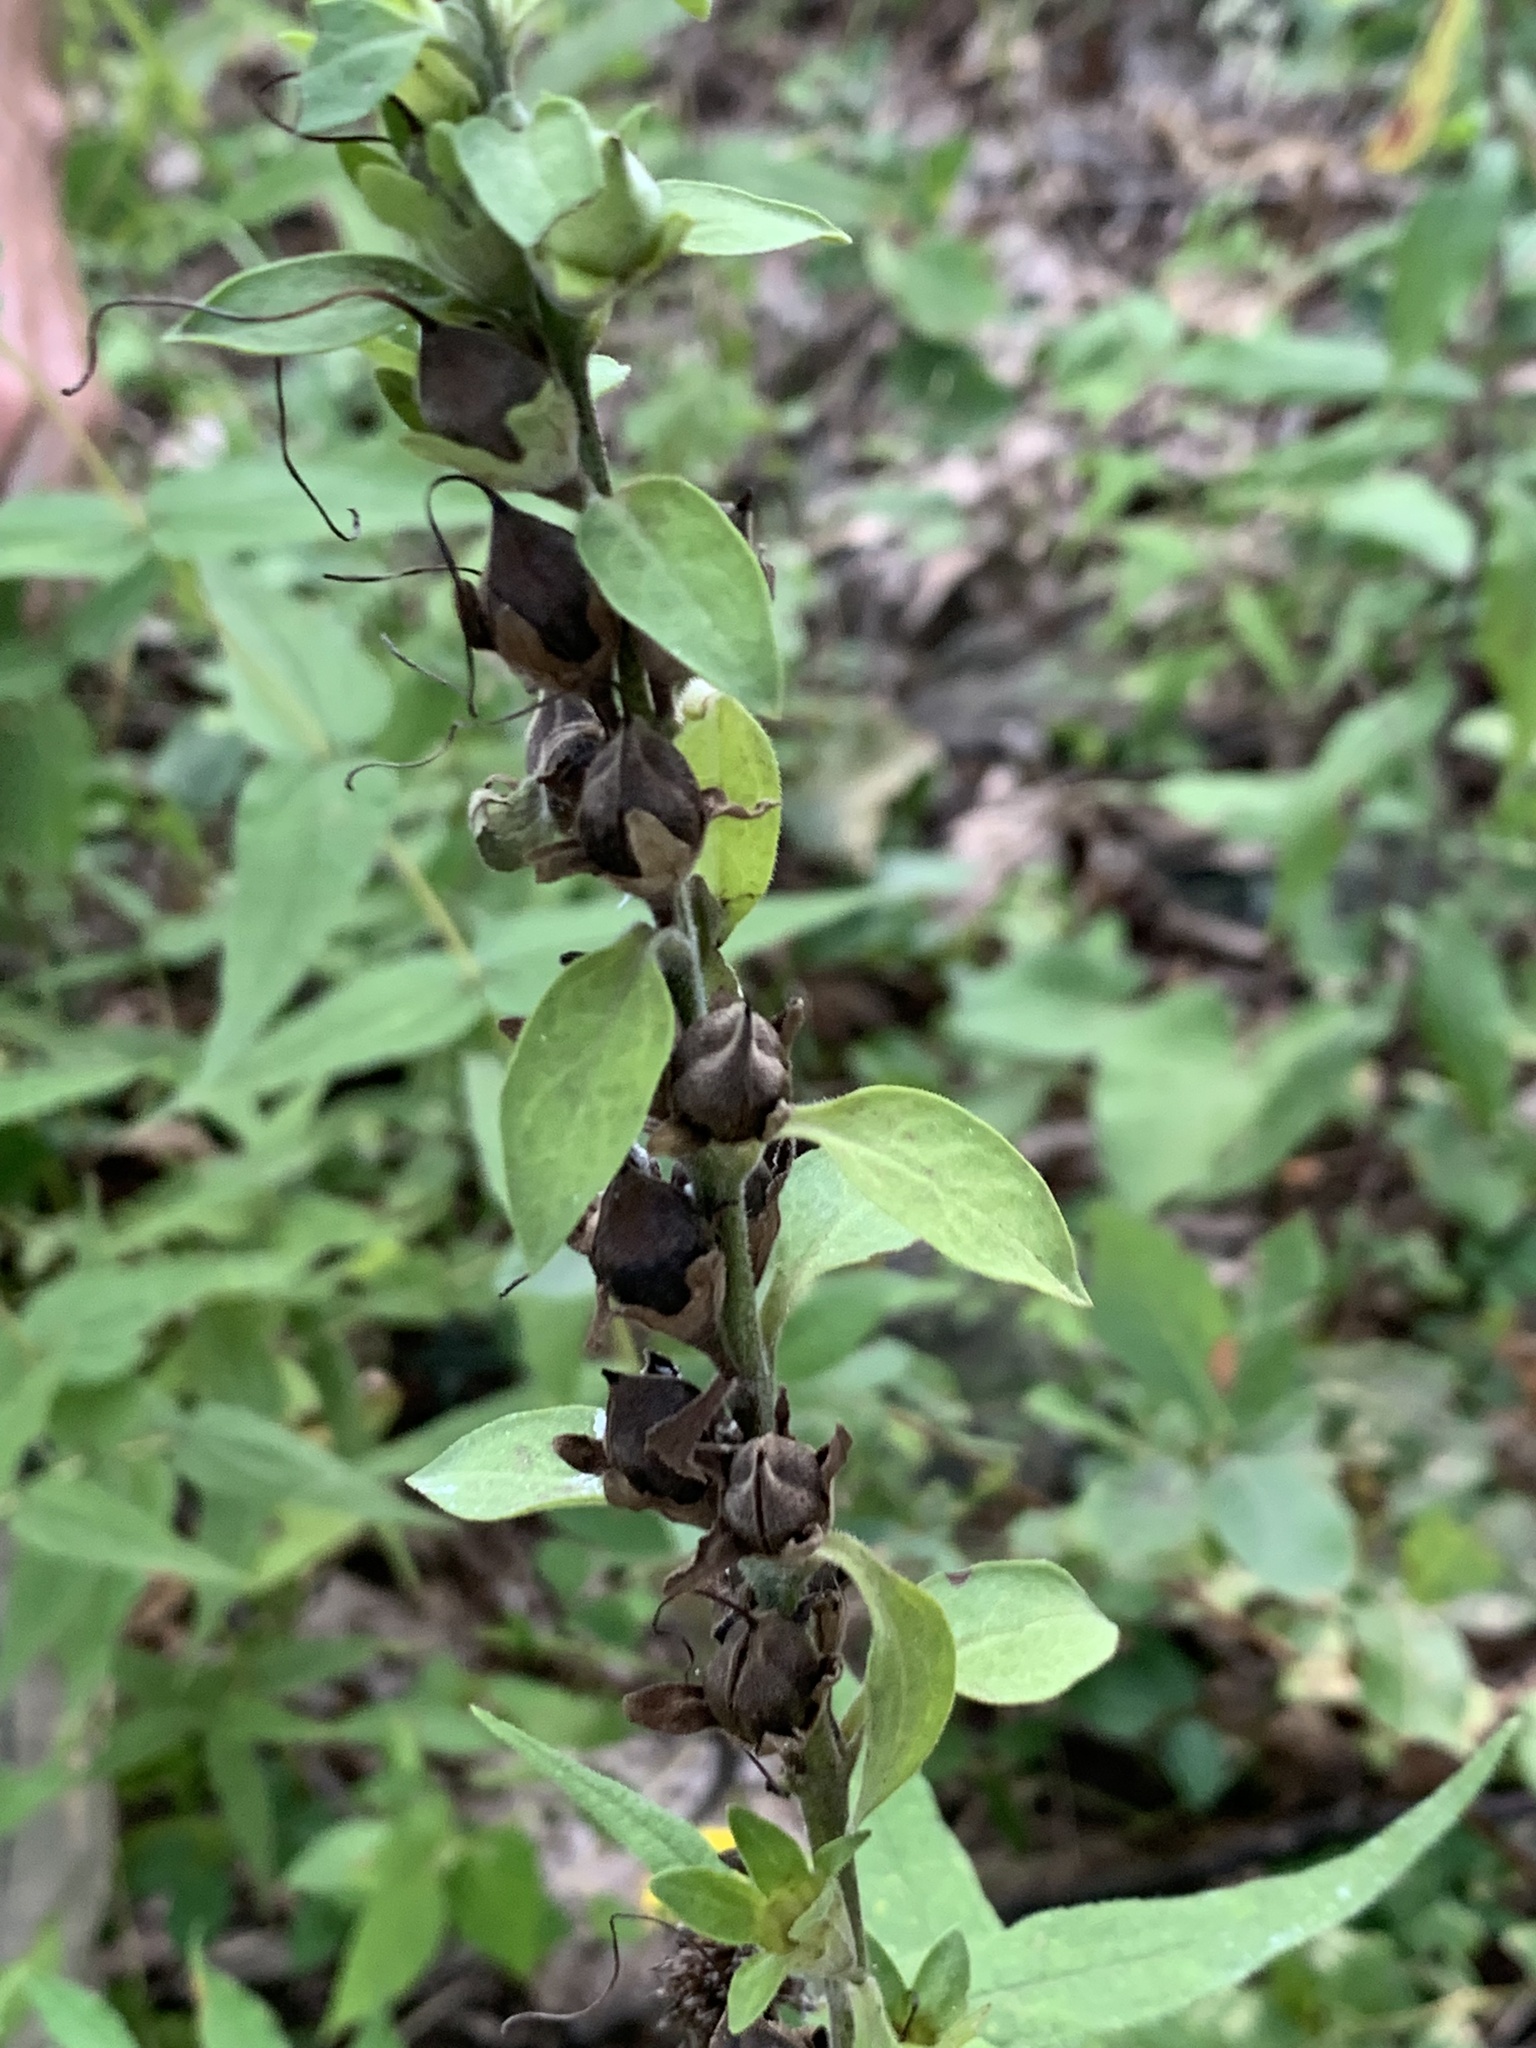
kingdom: Plantae
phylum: Tracheophyta
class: Magnoliopsida
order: Lamiales
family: Orobanchaceae
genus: Aureolaria
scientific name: Aureolaria virginica
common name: Downy false foxglove
